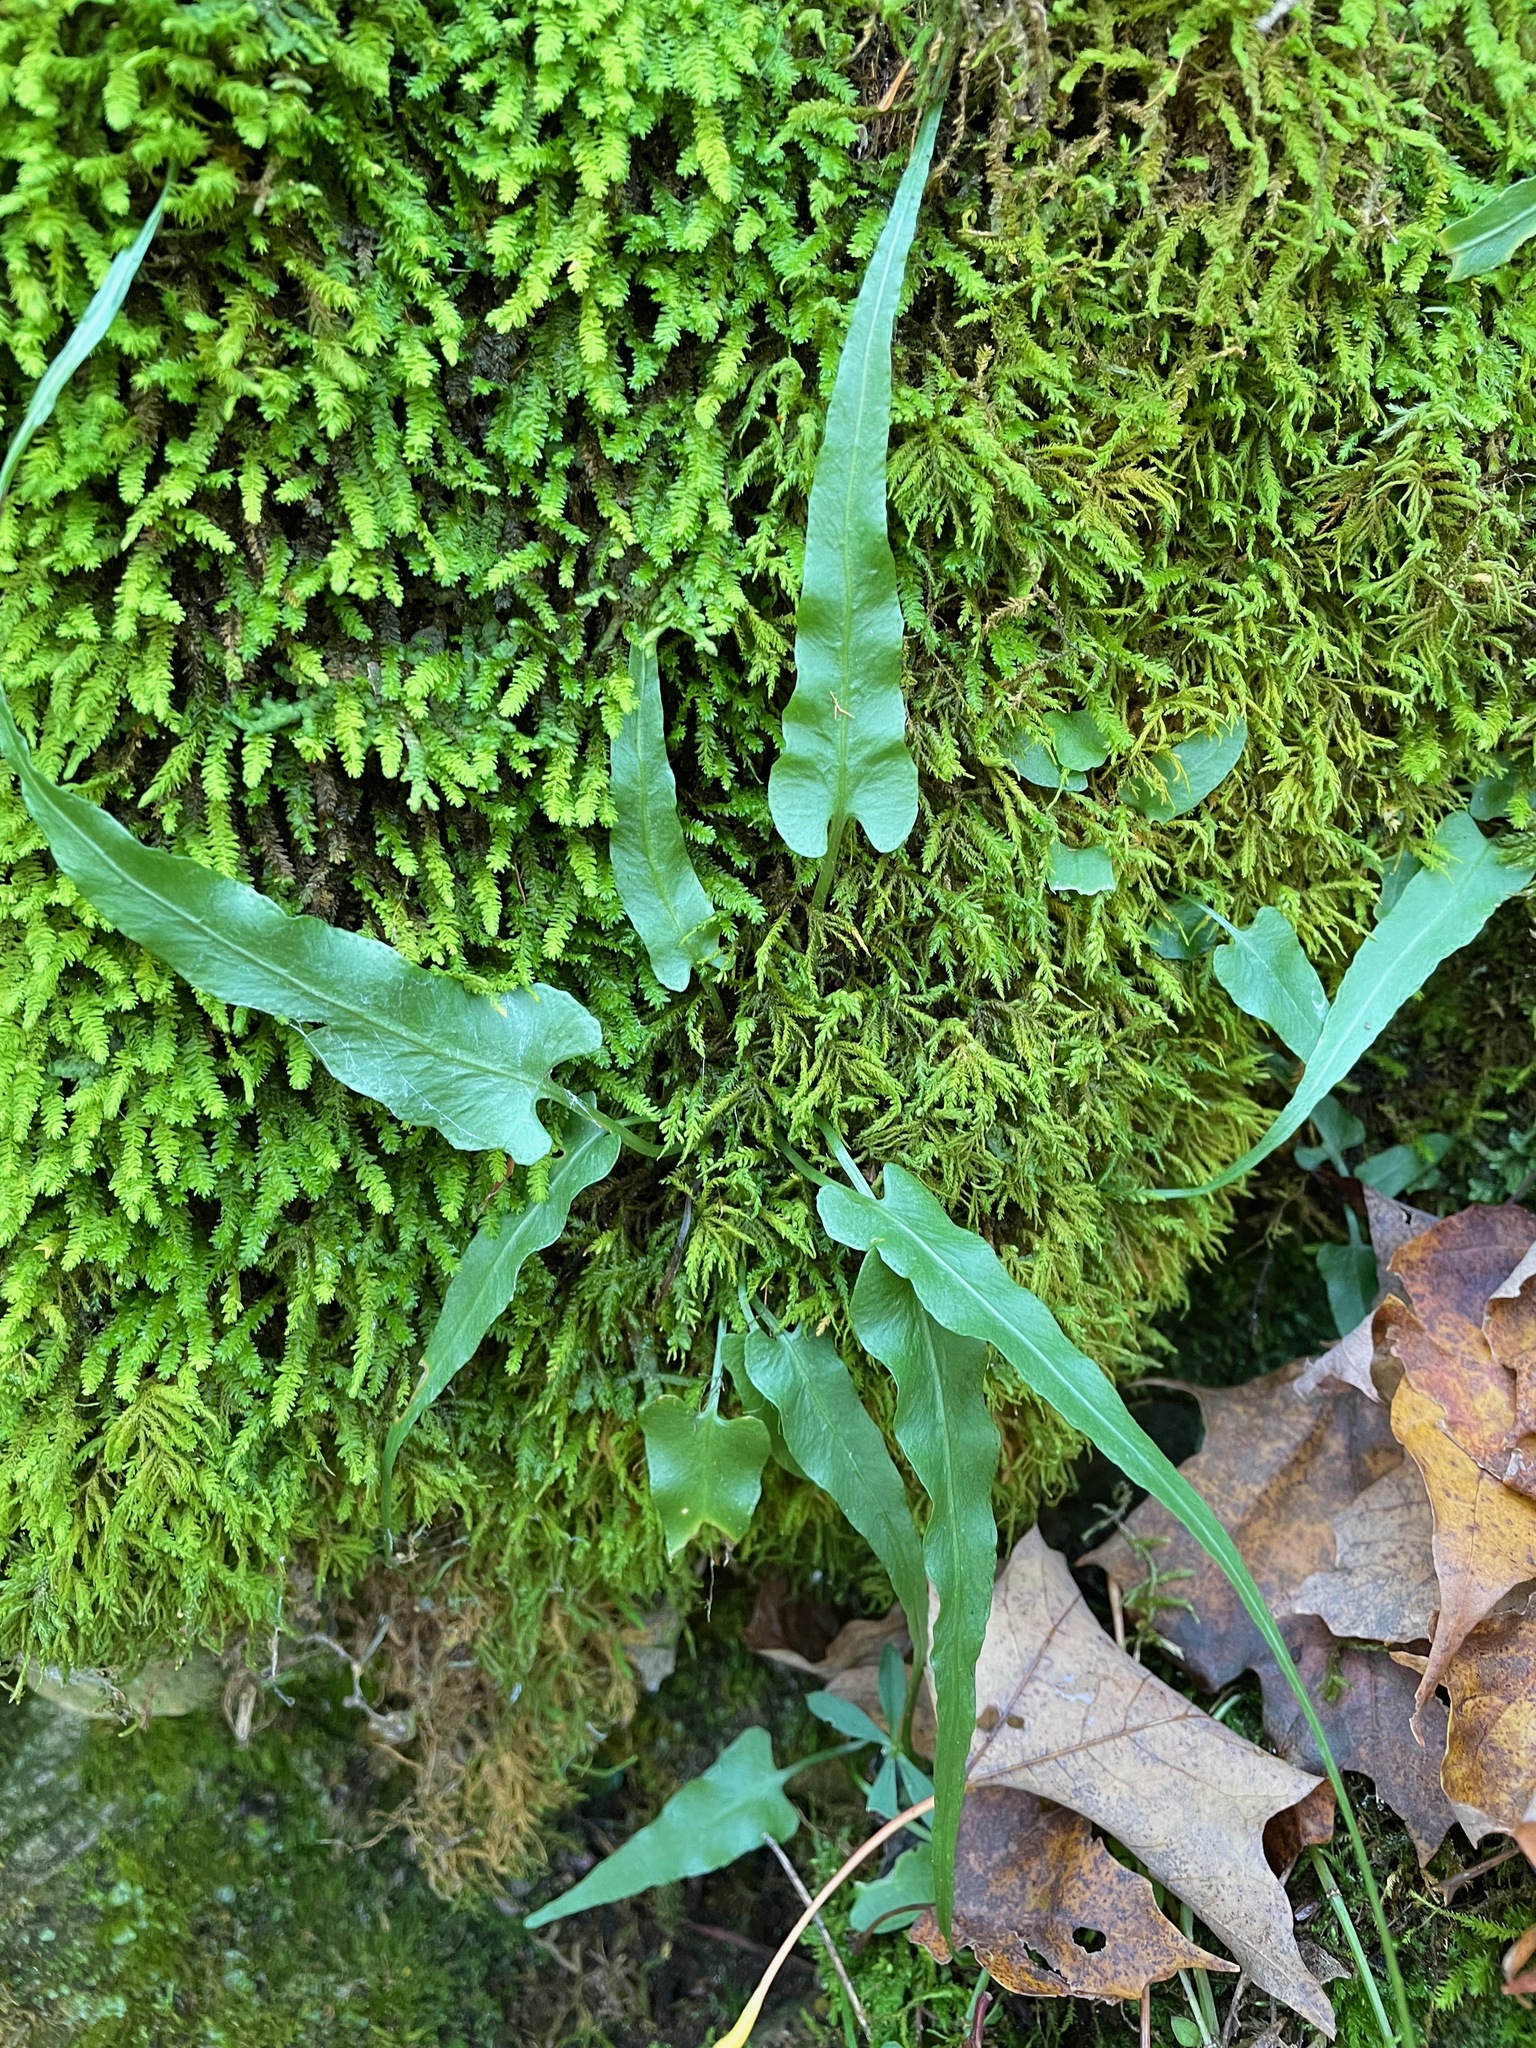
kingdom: Plantae
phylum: Tracheophyta
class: Polypodiopsida
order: Polypodiales
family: Aspleniaceae
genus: Asplenium
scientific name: Asplenium rhizophyllum
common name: Walking fern
